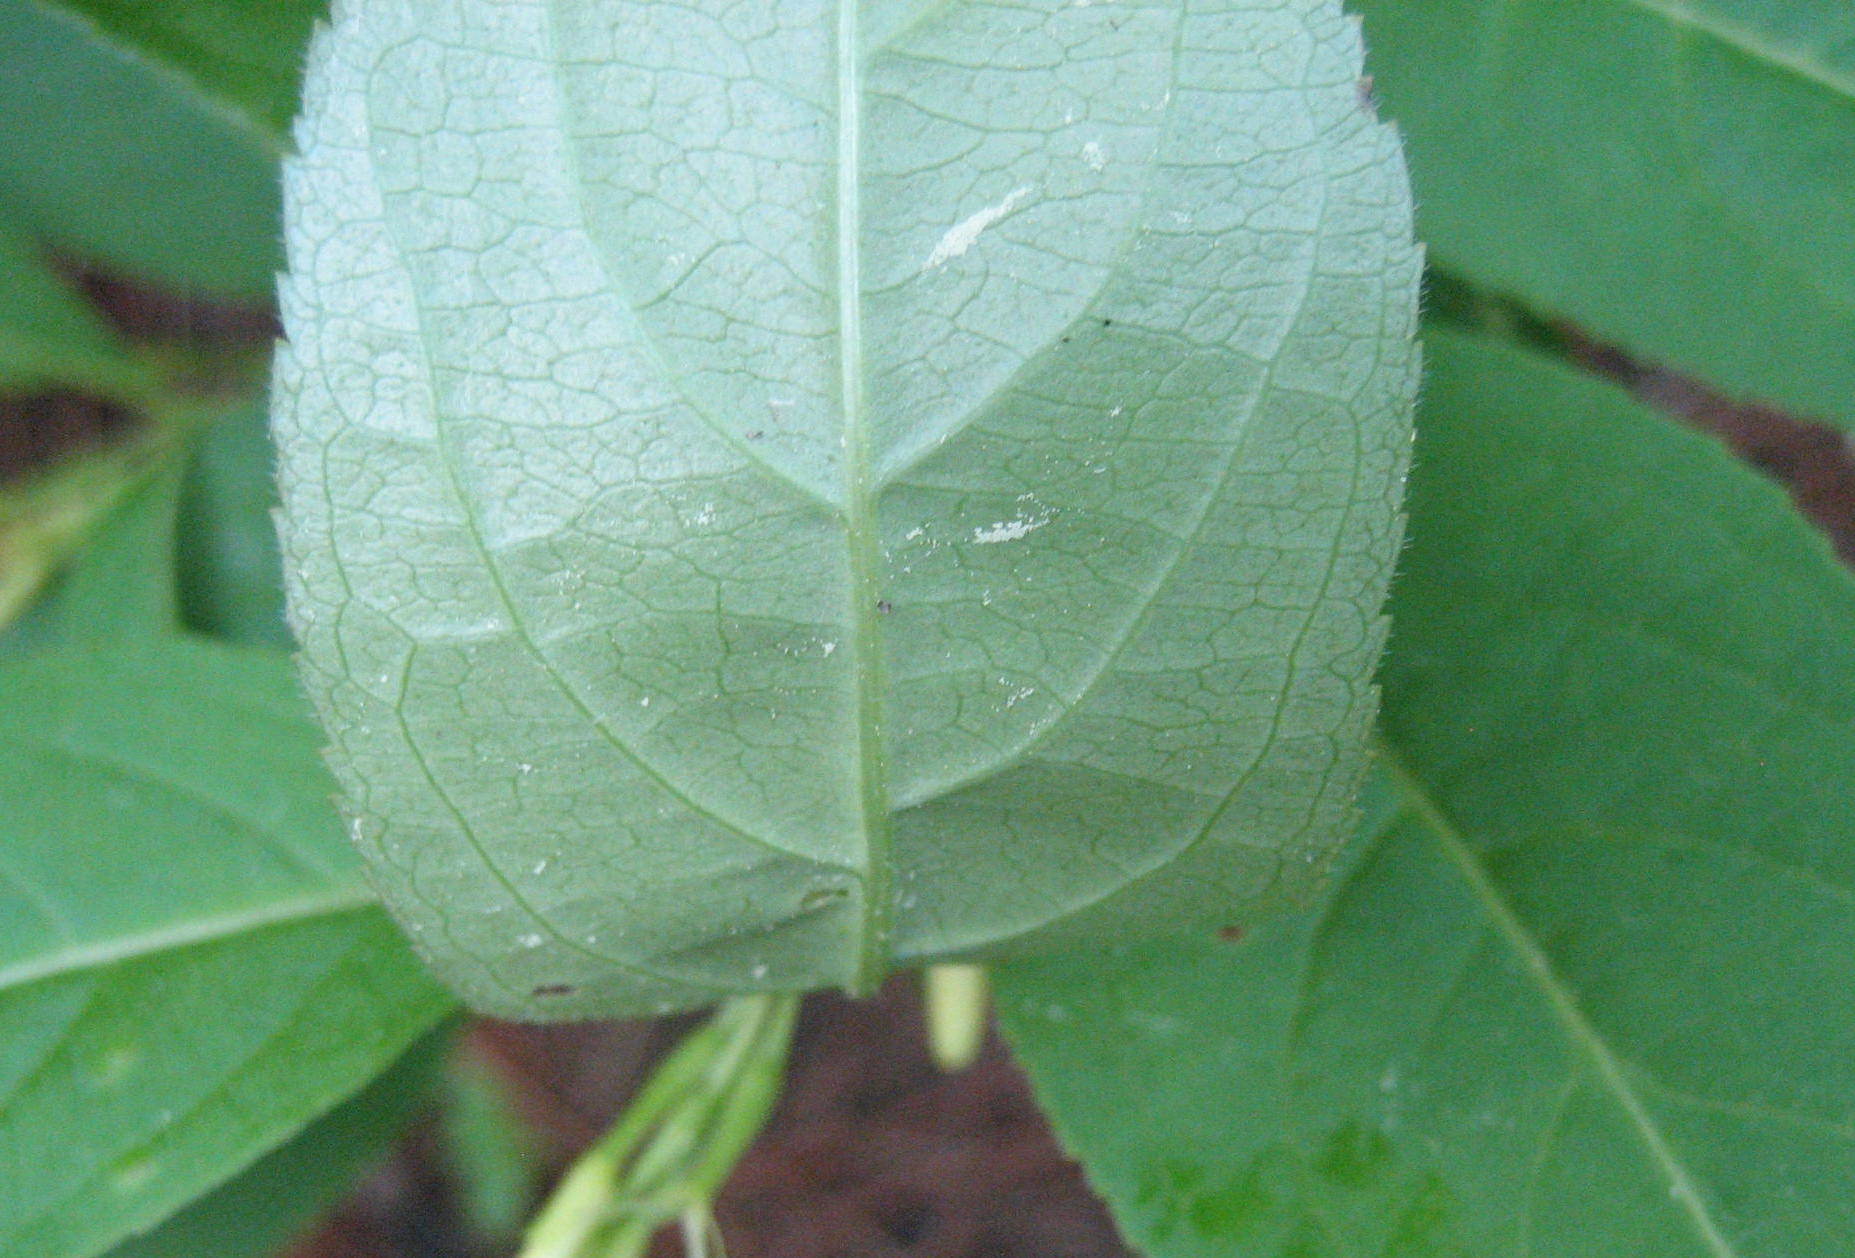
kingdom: Plantae
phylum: Tracheophyta
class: Magnoliopsida
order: Dipsacales
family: Caprifoliaceae
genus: Diervilla
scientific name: Diervilla lonicera
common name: Bush-honeysuckle
